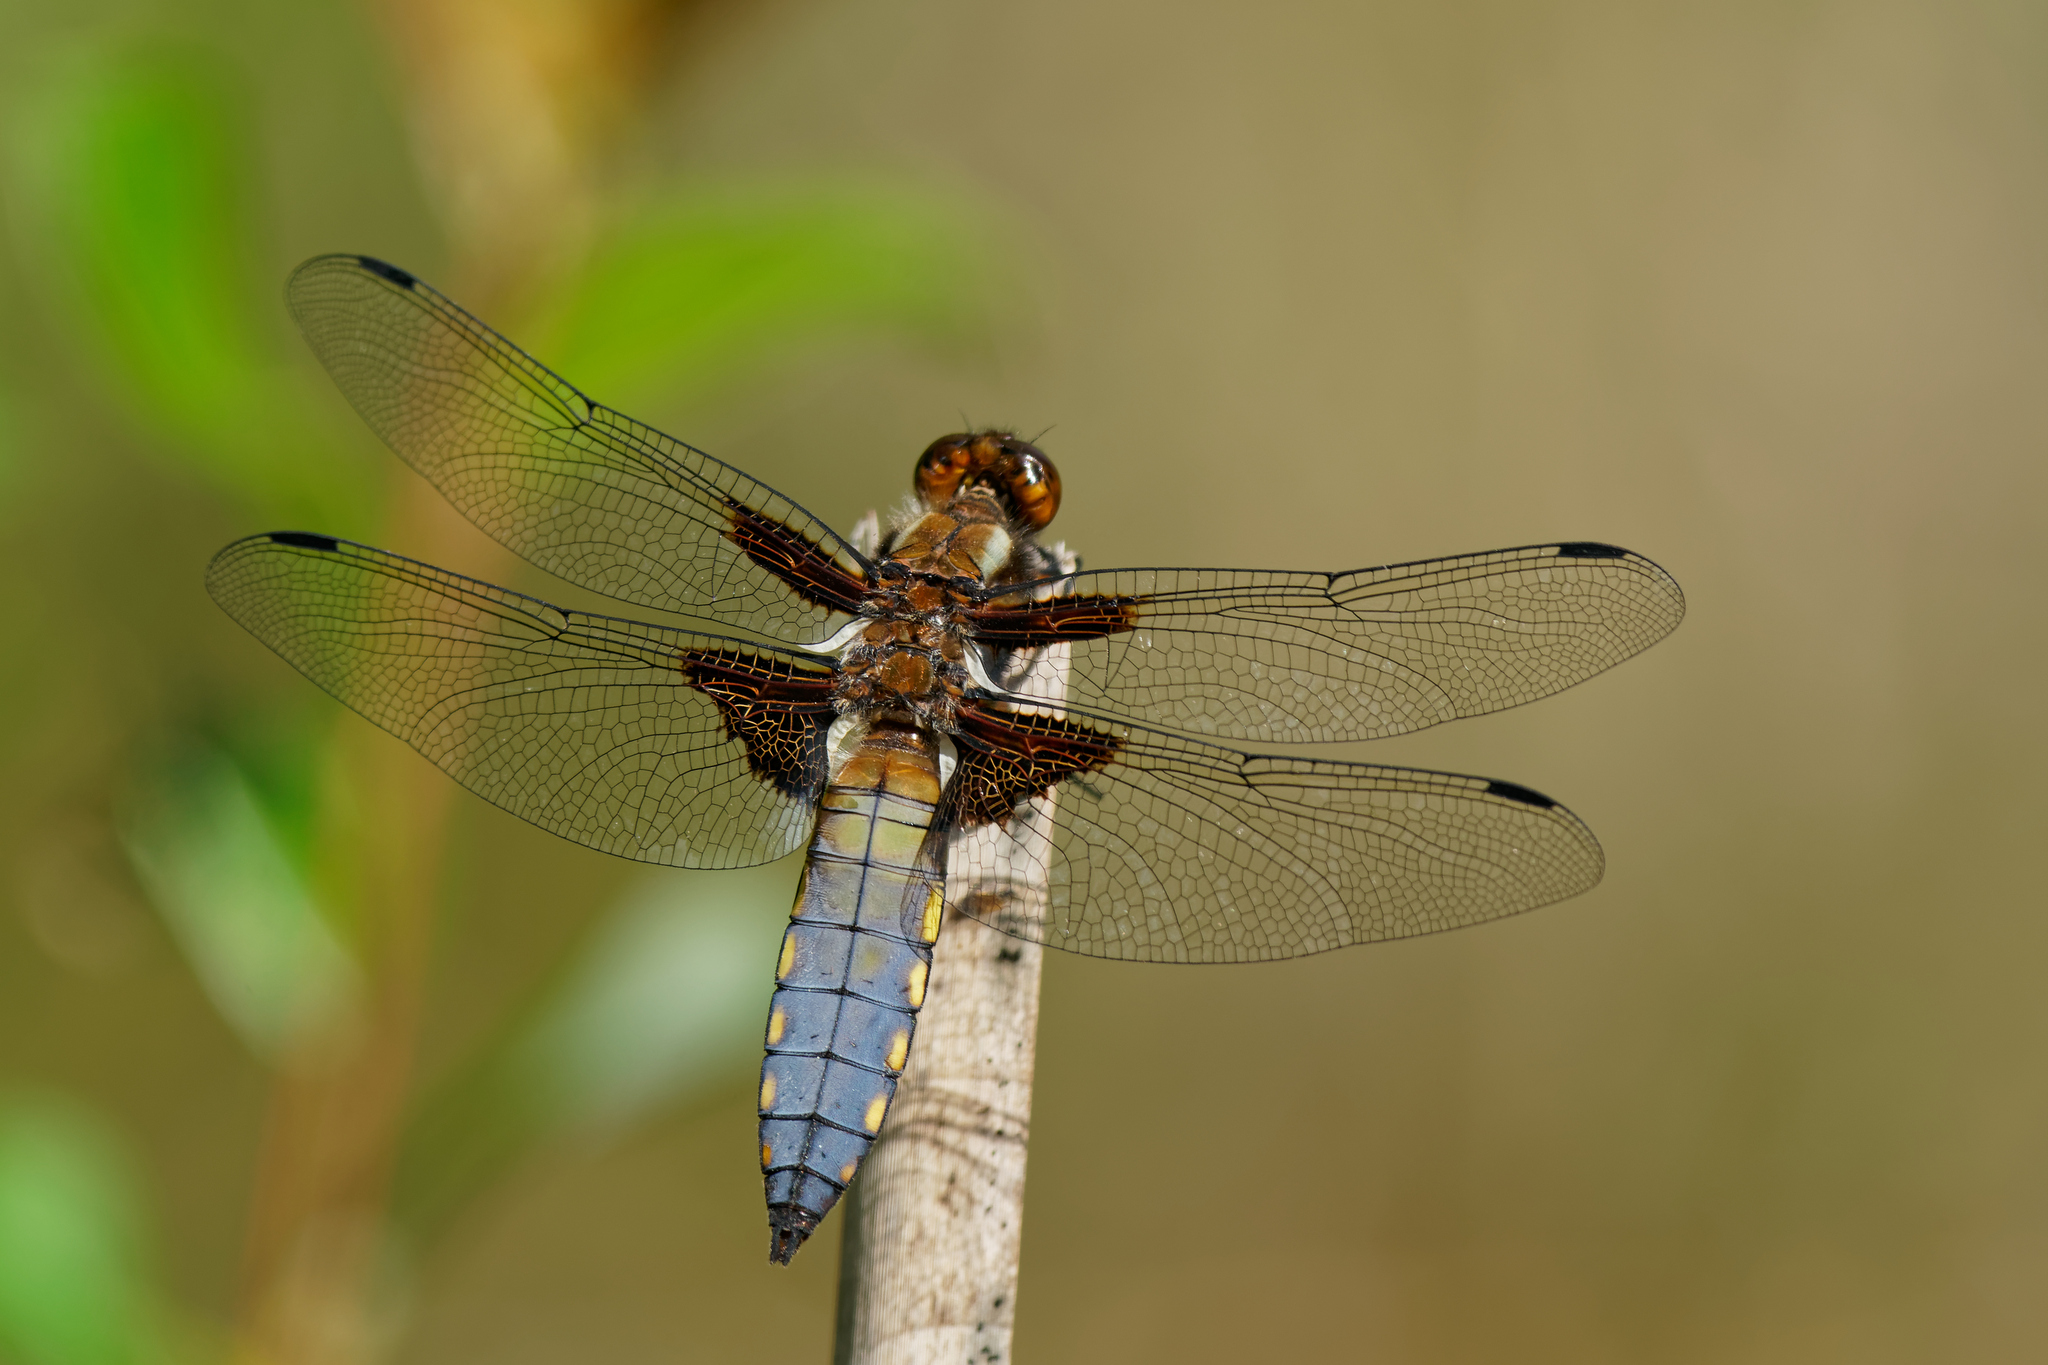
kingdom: Animalia
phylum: Arthropoda
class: Insecta
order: Odonata
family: Libellulidae
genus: Libellula
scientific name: Libellula depressa
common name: Broad-bodied chaser
